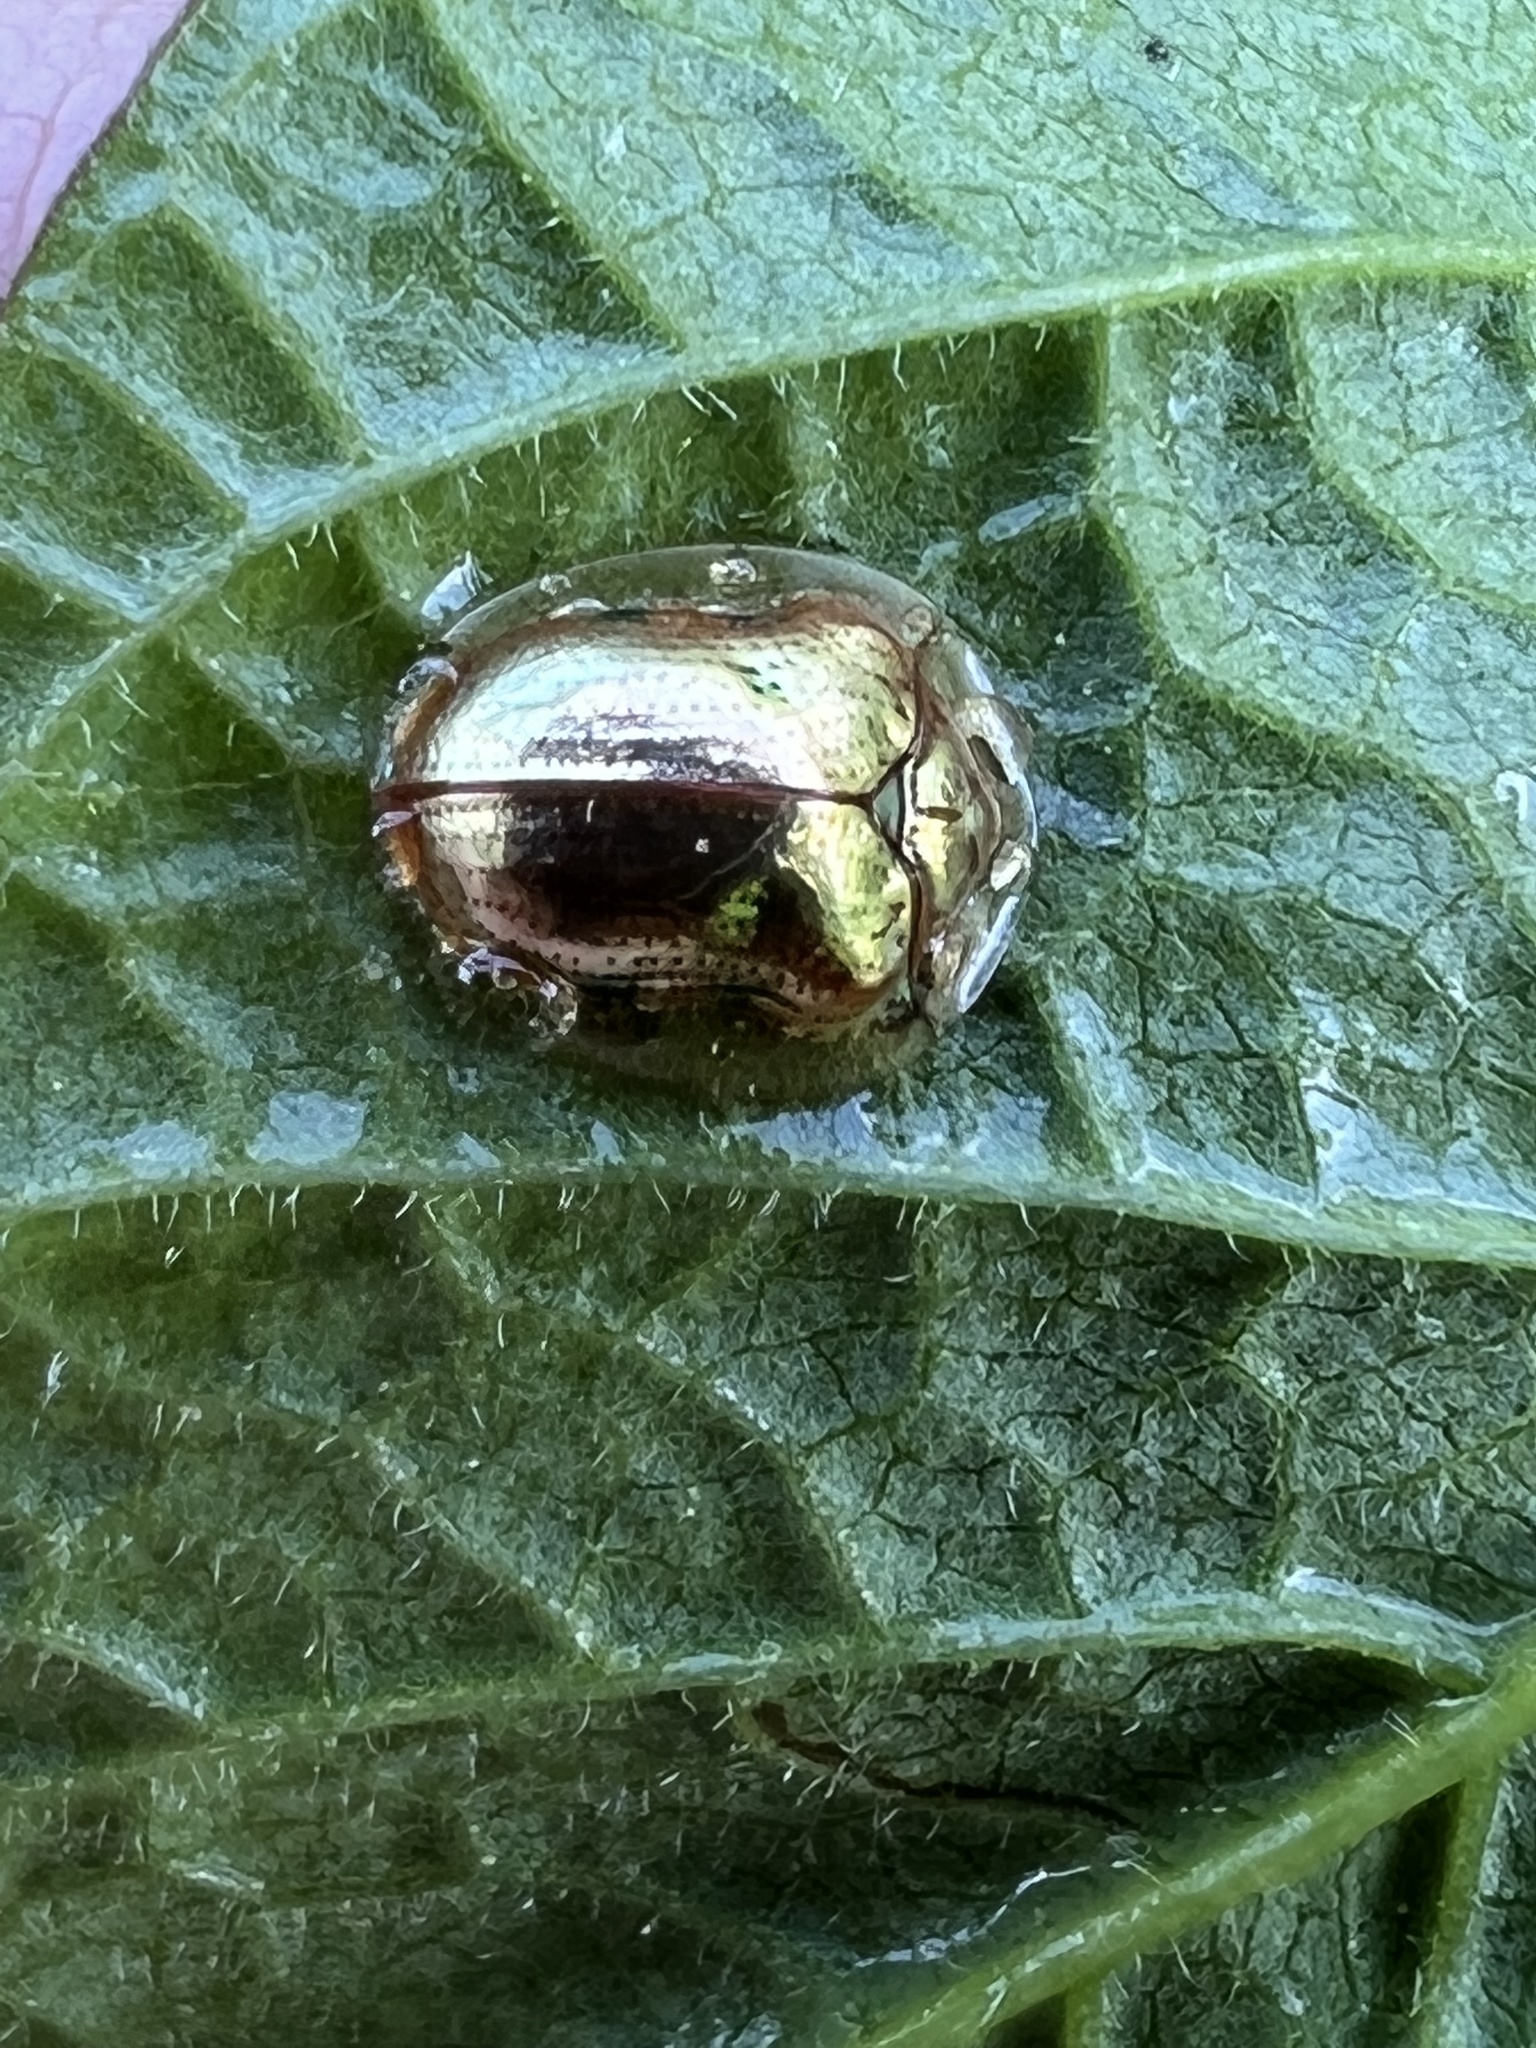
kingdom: Animalia
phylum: Arthropoda
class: Insecta
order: Coleoptera
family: Chrysomelidae
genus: Charidotella
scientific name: Charidotella sexpunctata
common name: Golden tortoise beetle
